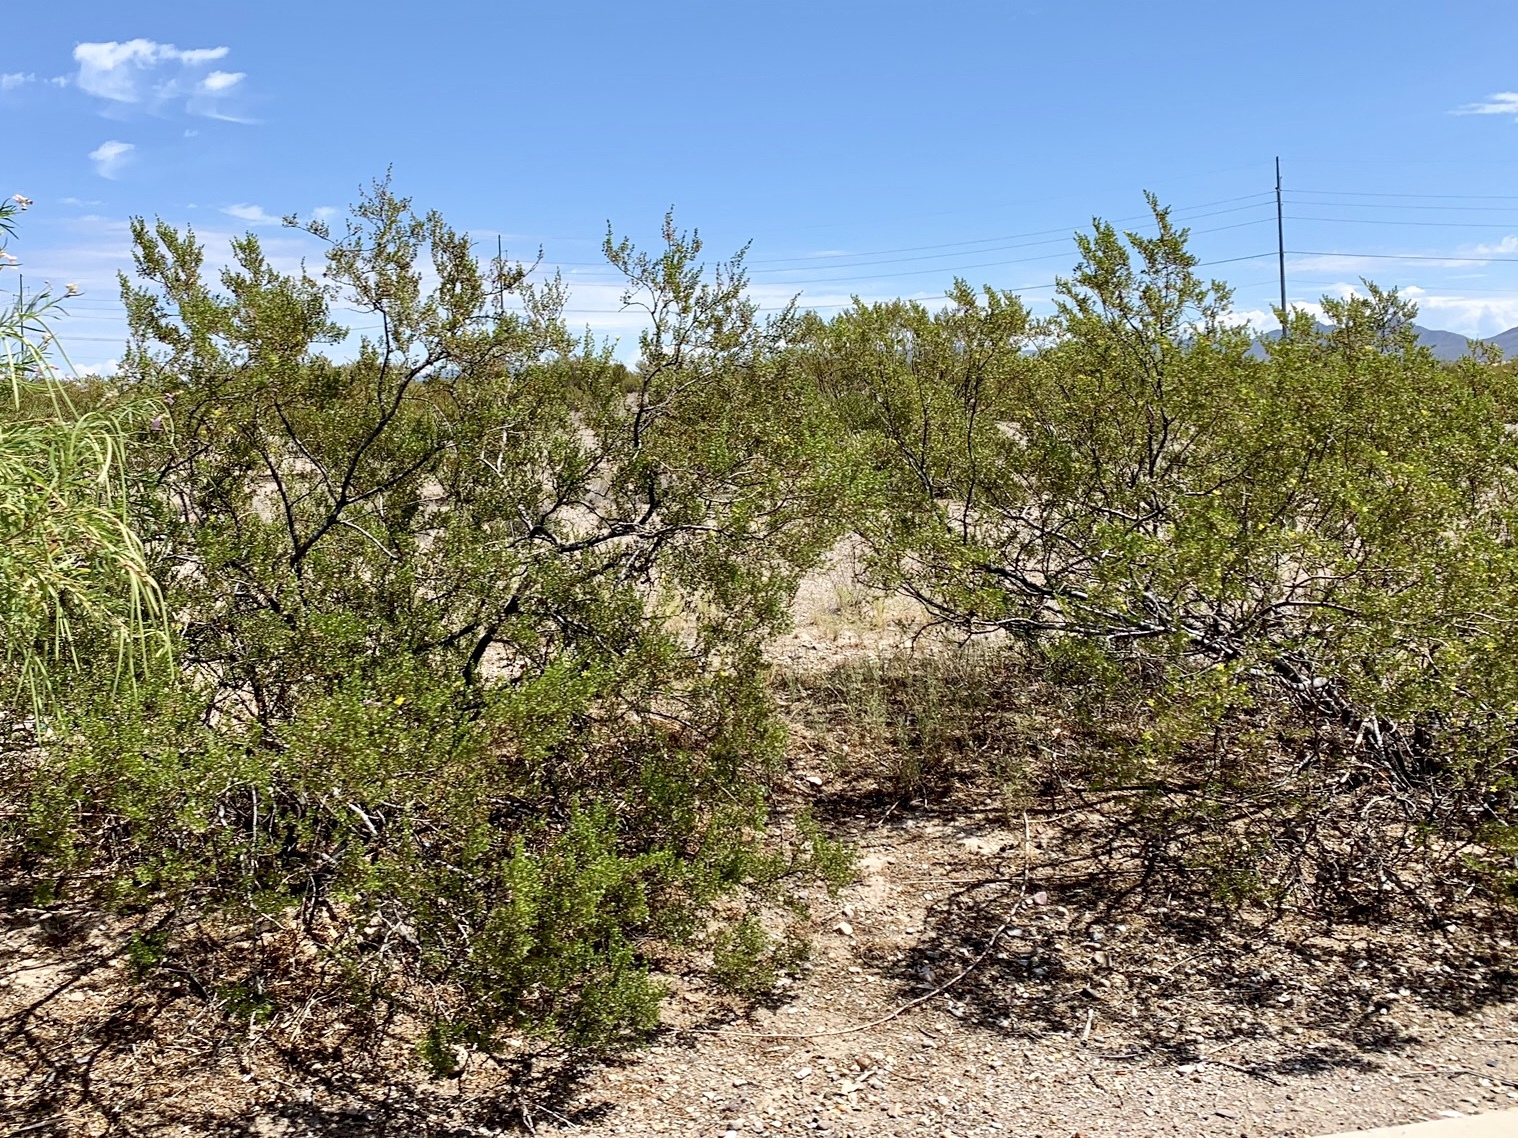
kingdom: Plantae
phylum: Tracheophyta
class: Magnoliopsida
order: Zygophyllales
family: Zygophyllaceae
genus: Larrea
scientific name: Larrea tridentata
